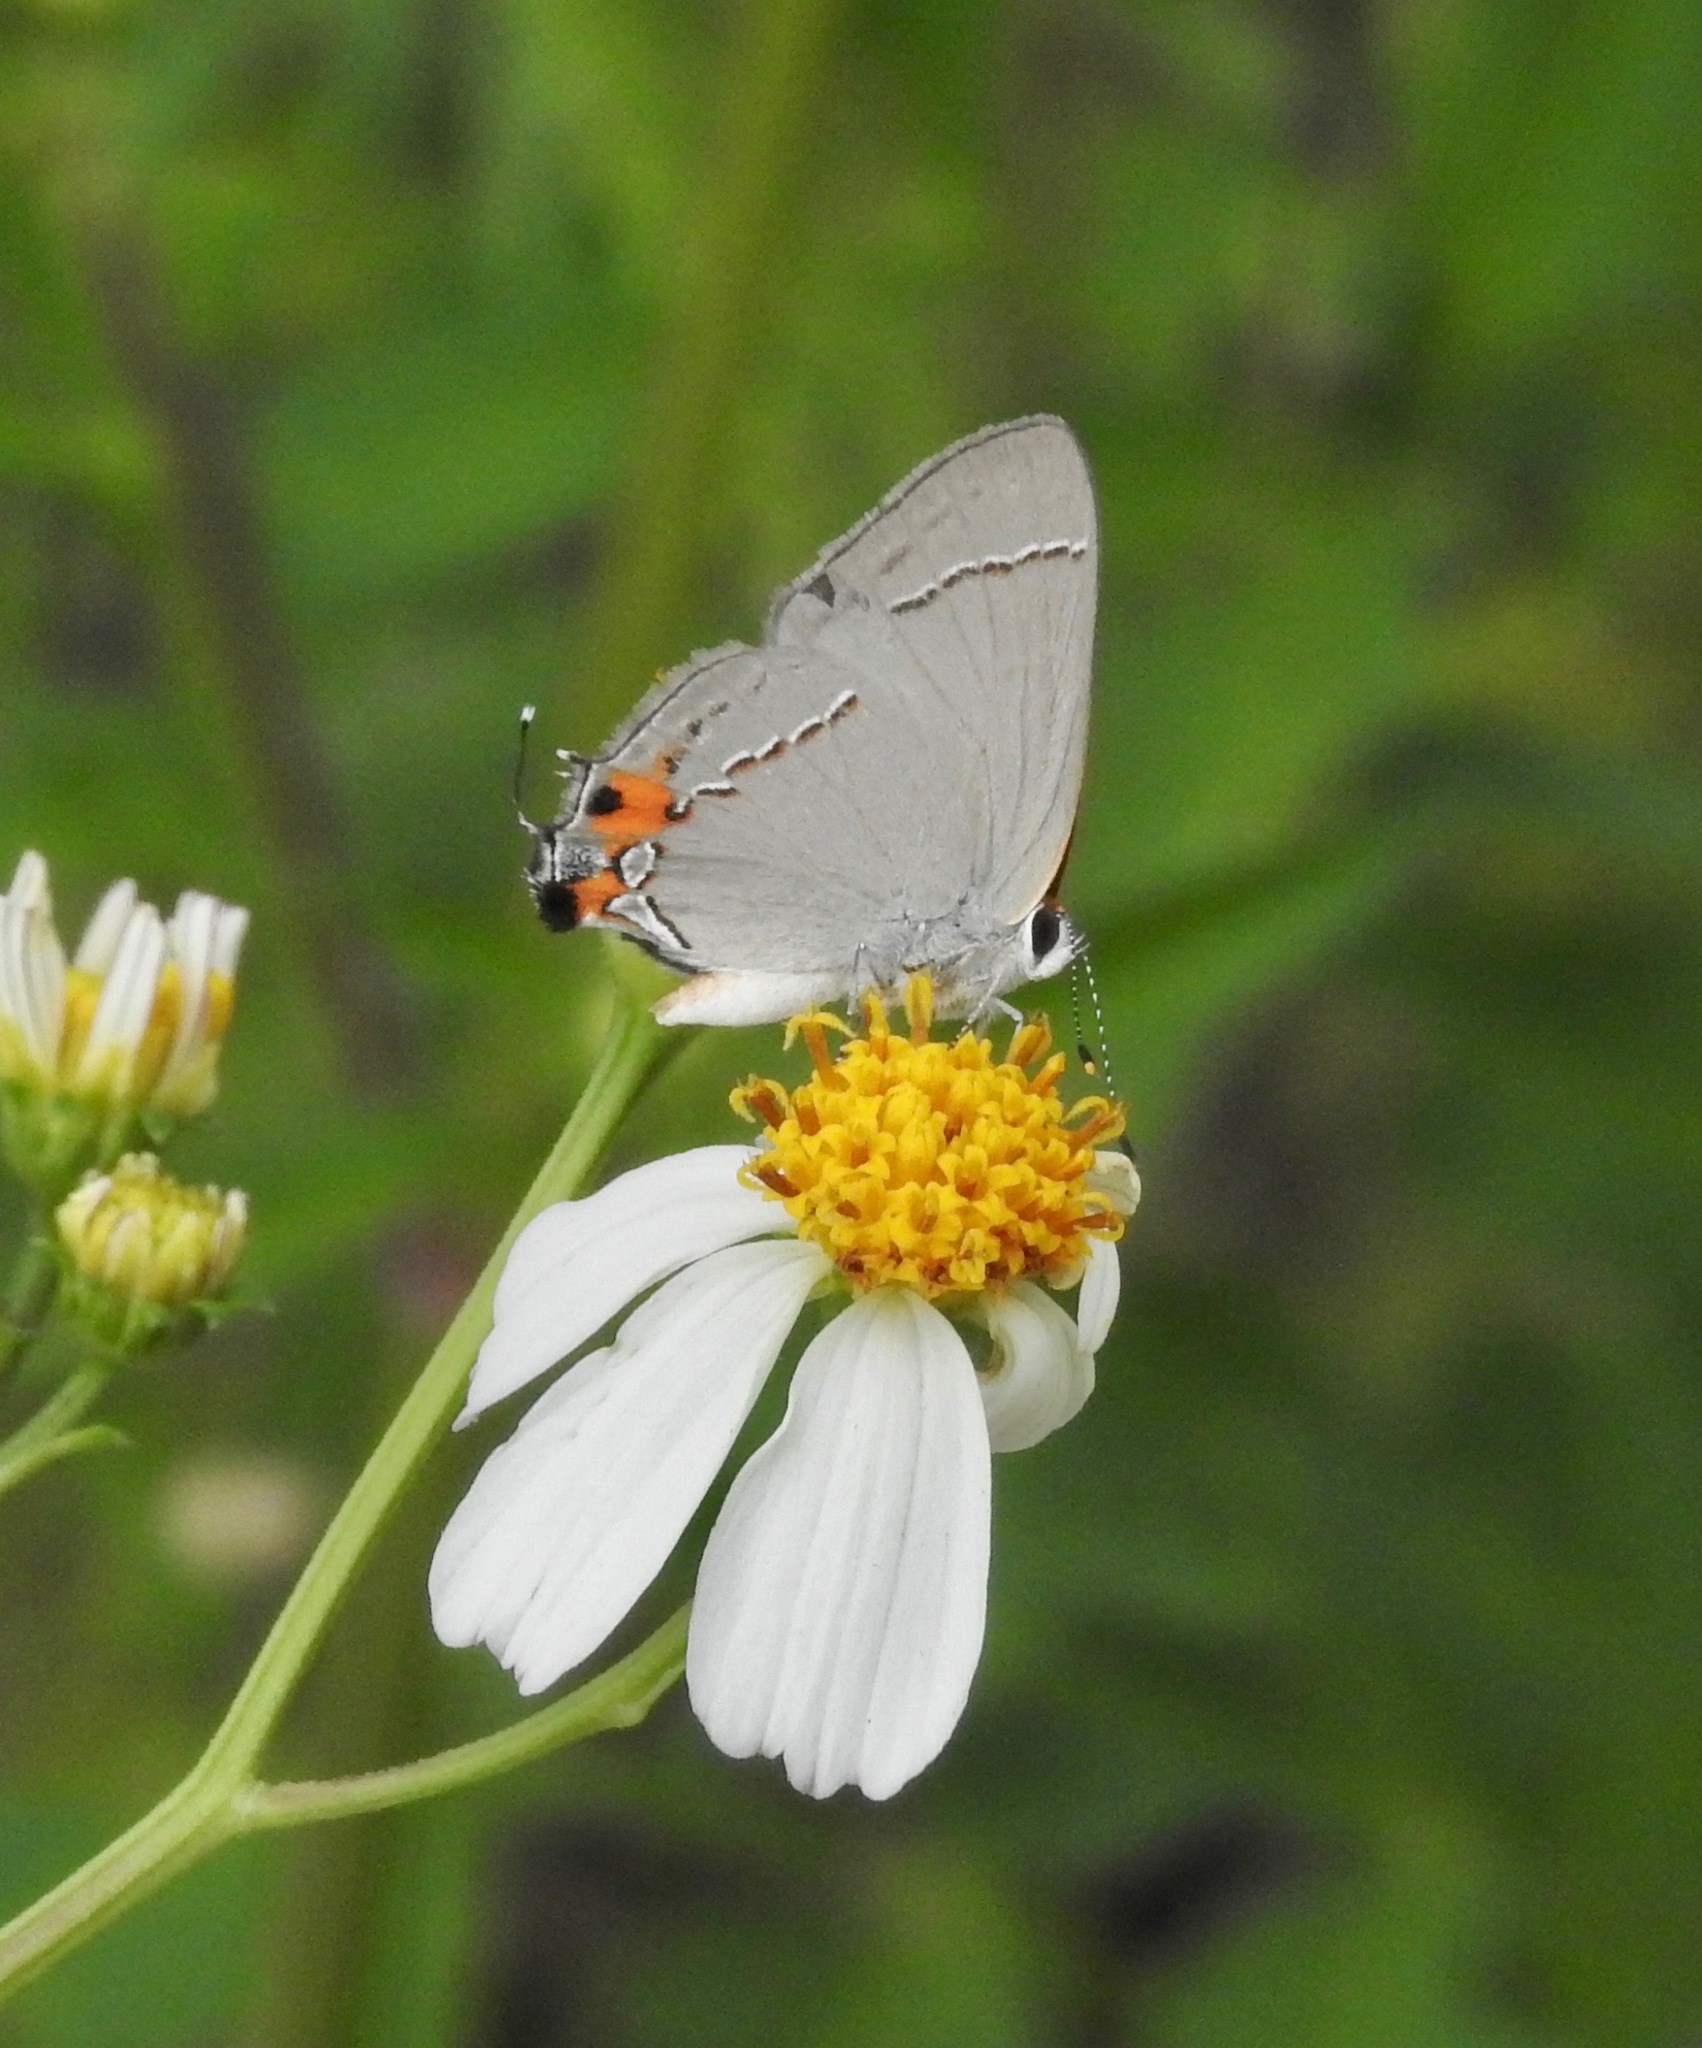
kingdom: Animalia
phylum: Arthropoda
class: Insecta
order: Lepidoptera
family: Lycaenidae
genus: Strymon
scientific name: Strymon melinus
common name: Gray hairstreak
